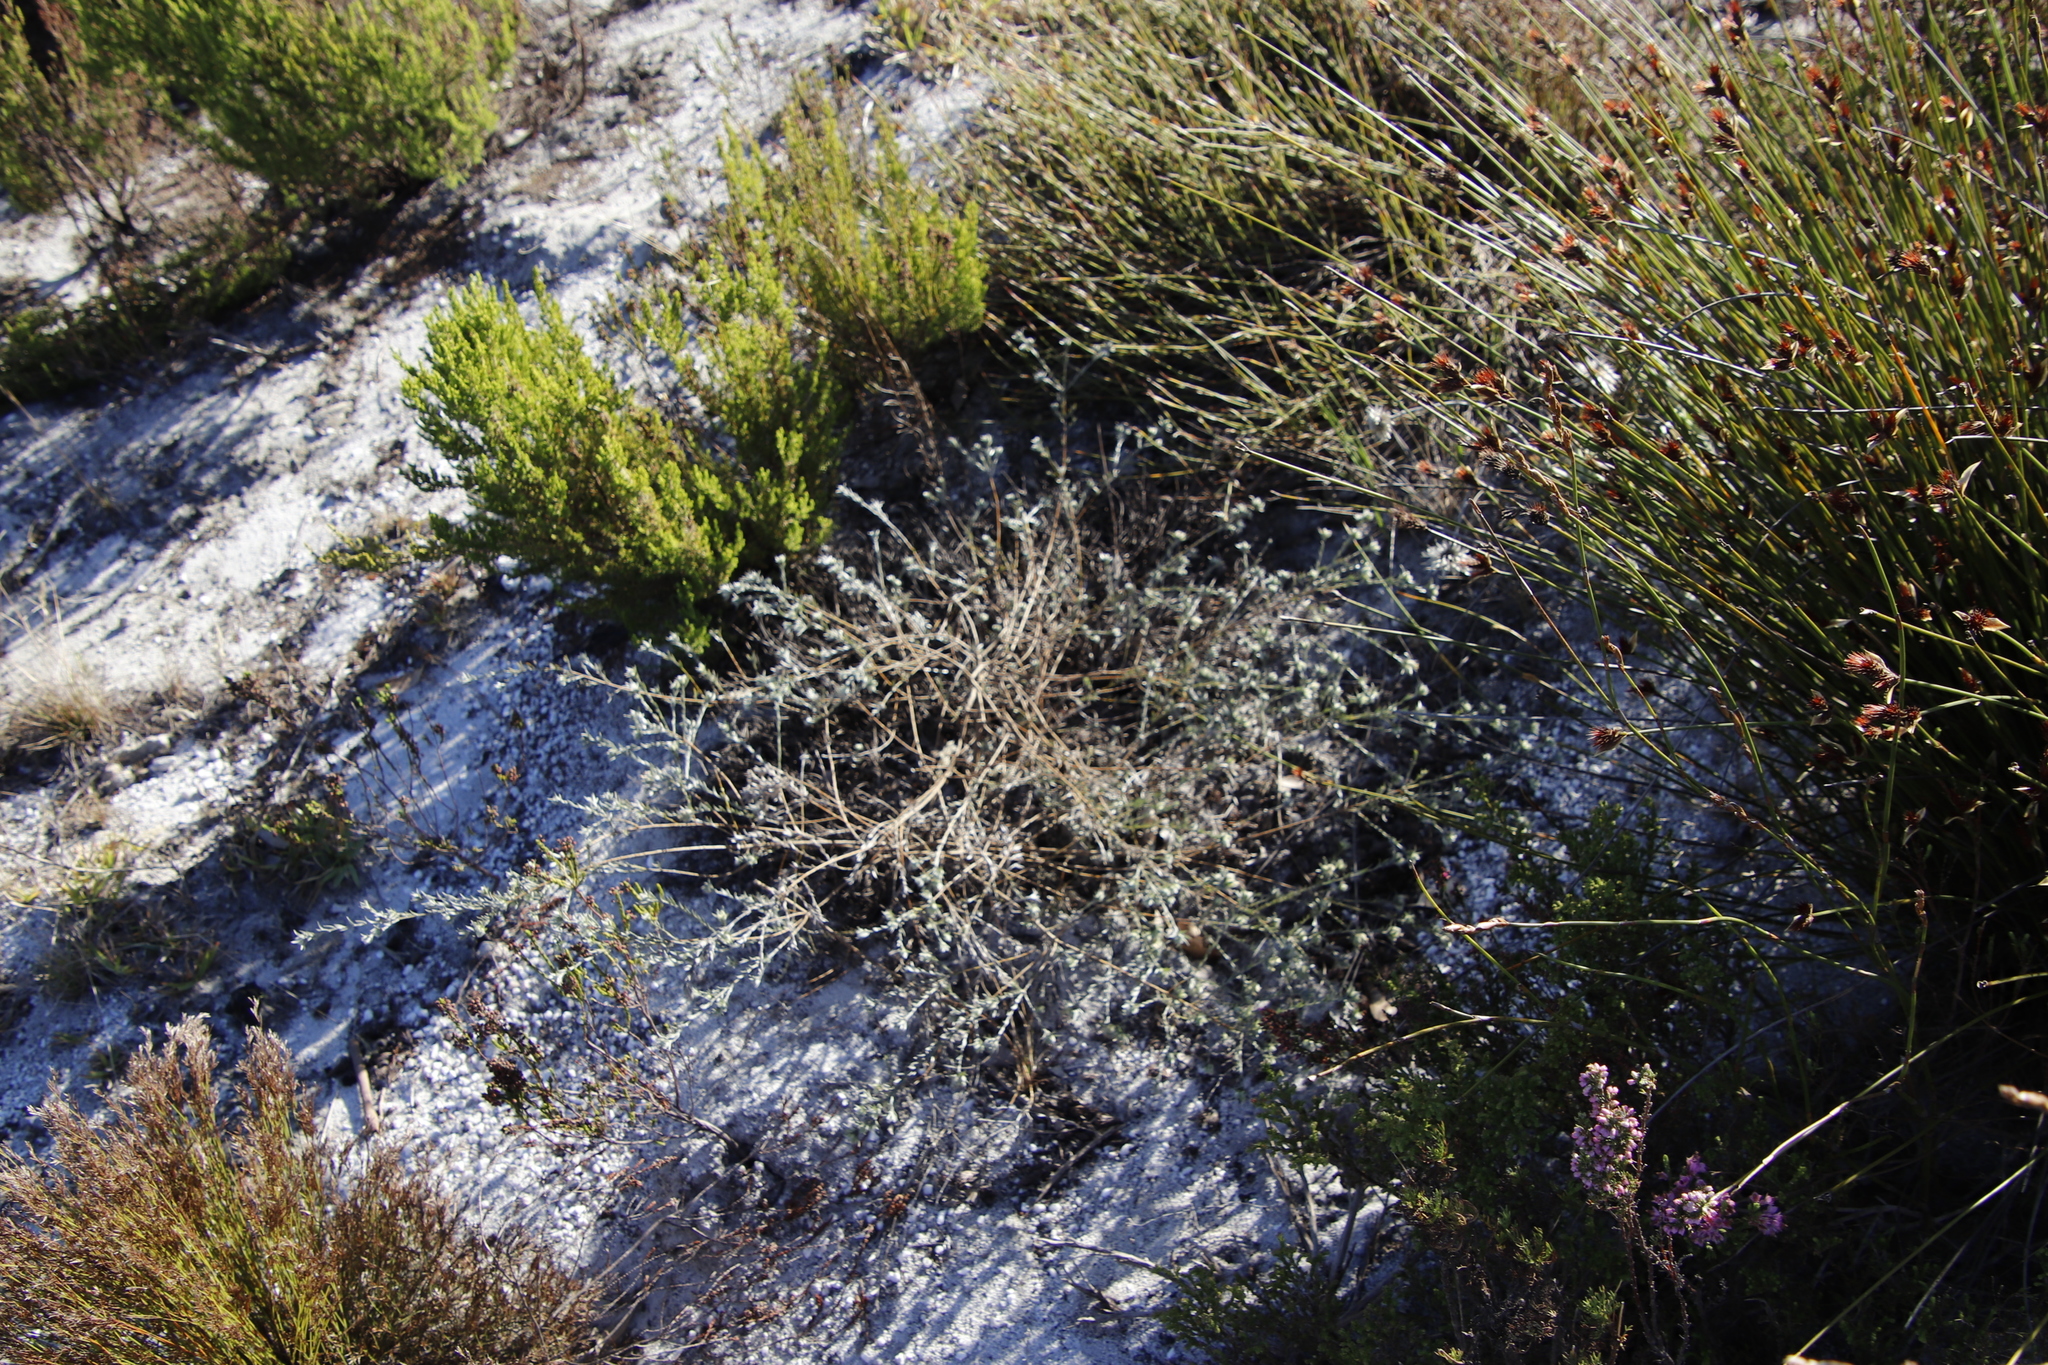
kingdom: Plantae
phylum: Tracheophyta
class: Magnoliopsida
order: Fabales
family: Fabaceae
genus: Amphithalea
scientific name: Amphithalea tomentosa
